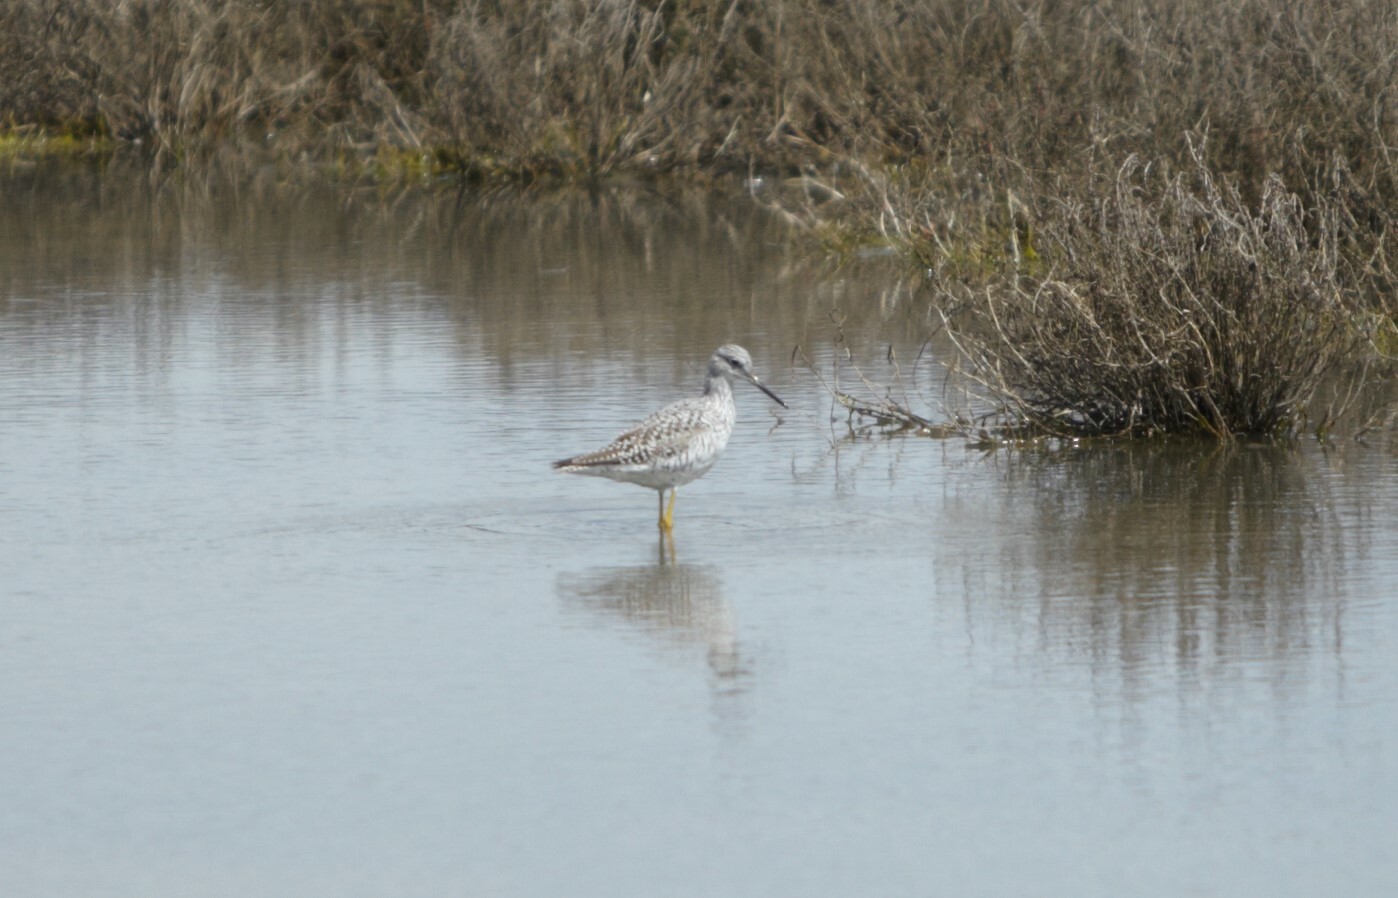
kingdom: Animalia
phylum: Chordata
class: Aves
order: Charadriiformes
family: Scolopacidae
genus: Tringa
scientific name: Tringa melanoleuca
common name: Greater yellowlegs
